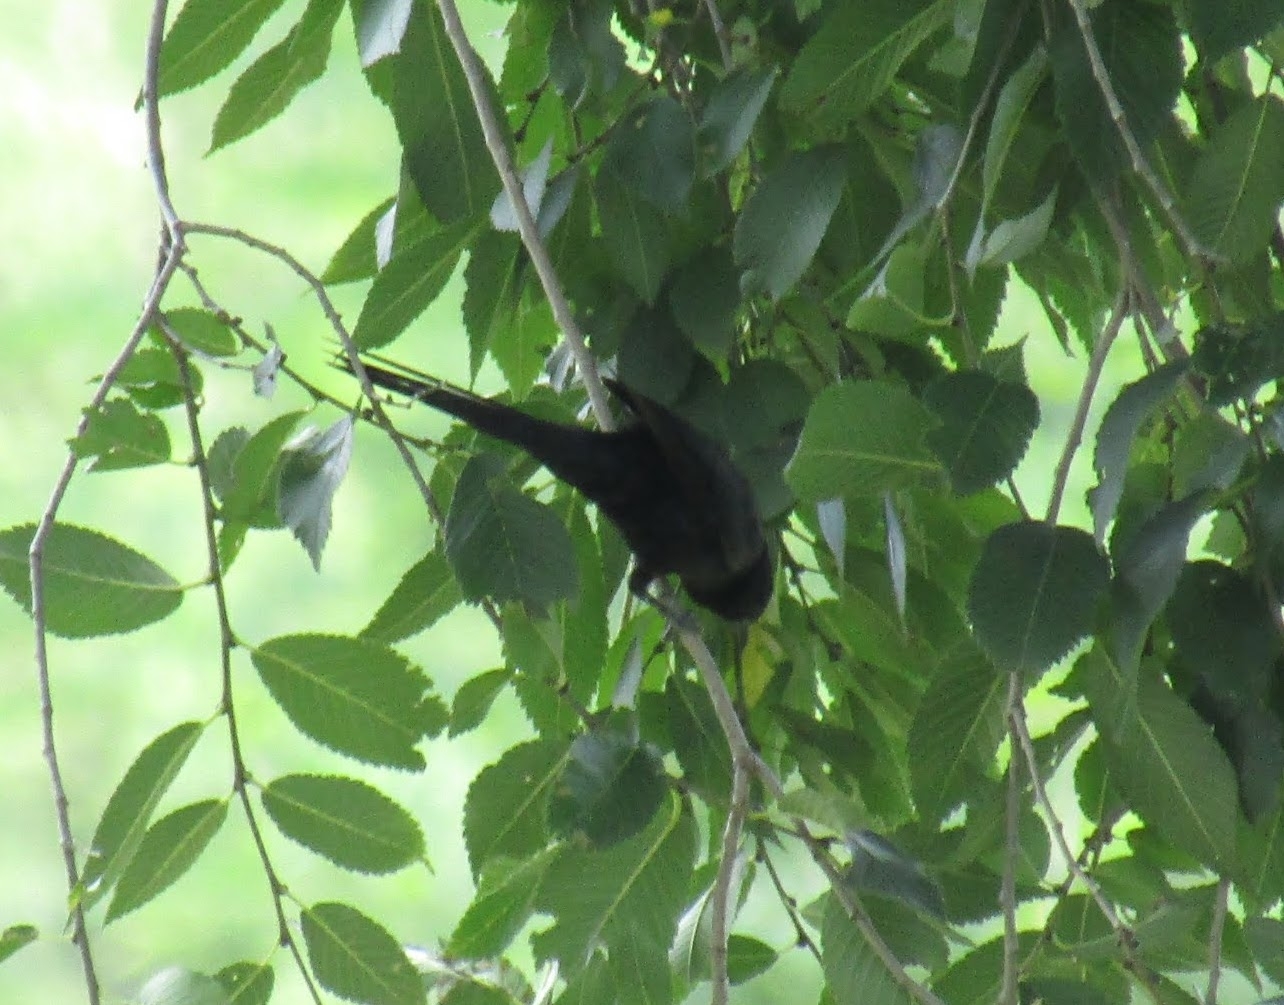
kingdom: Animalia
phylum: Chordata
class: Aves
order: Passeriformes
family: Icteridae
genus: Icterus
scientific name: Icterus cayanensis
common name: Epaulet oriole
